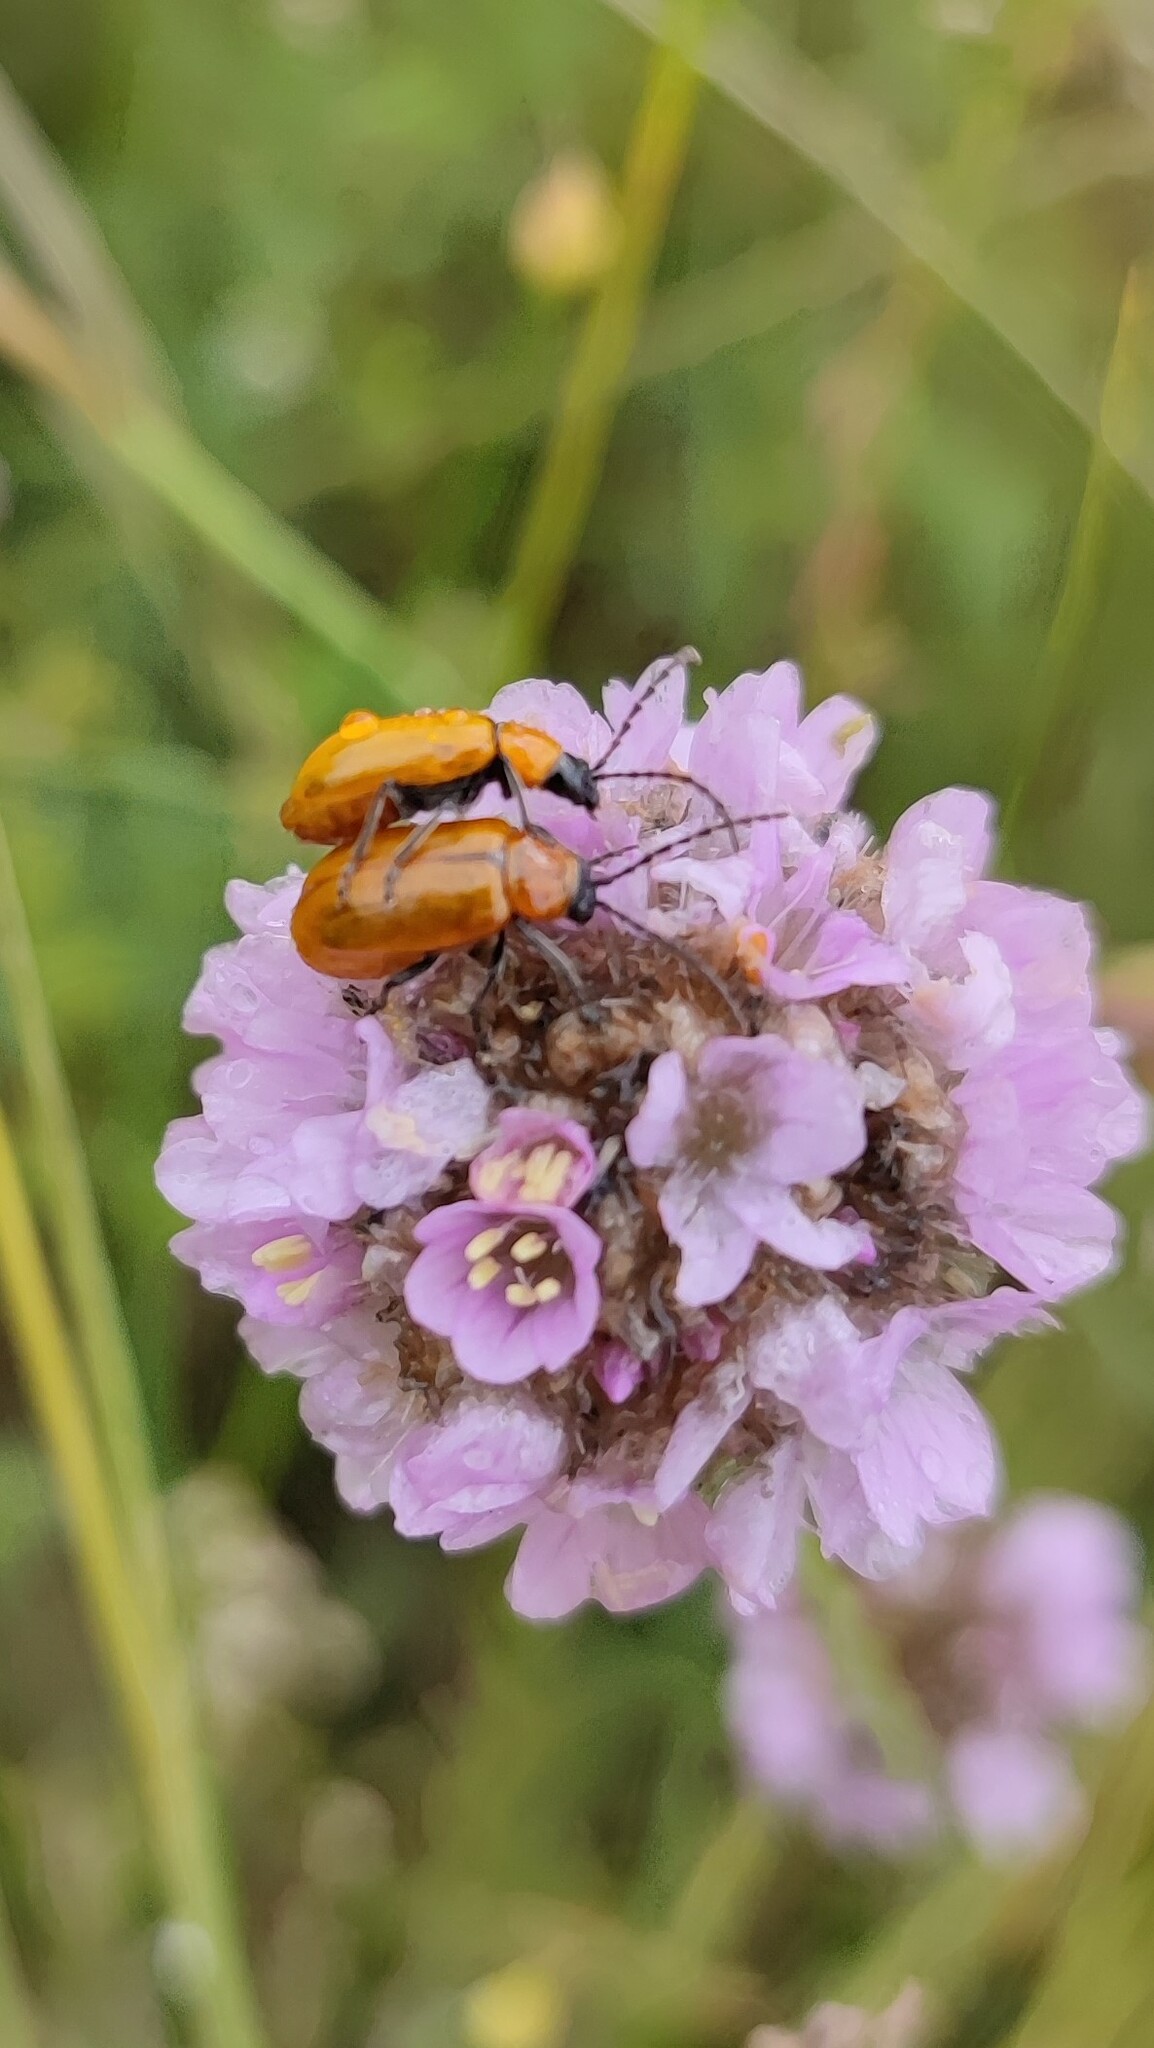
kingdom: Animalia
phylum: Arthropoda
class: Insecta
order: Coleoptera
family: Chrysomelidae
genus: Exosoma
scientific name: Exosoma lusitanicum
